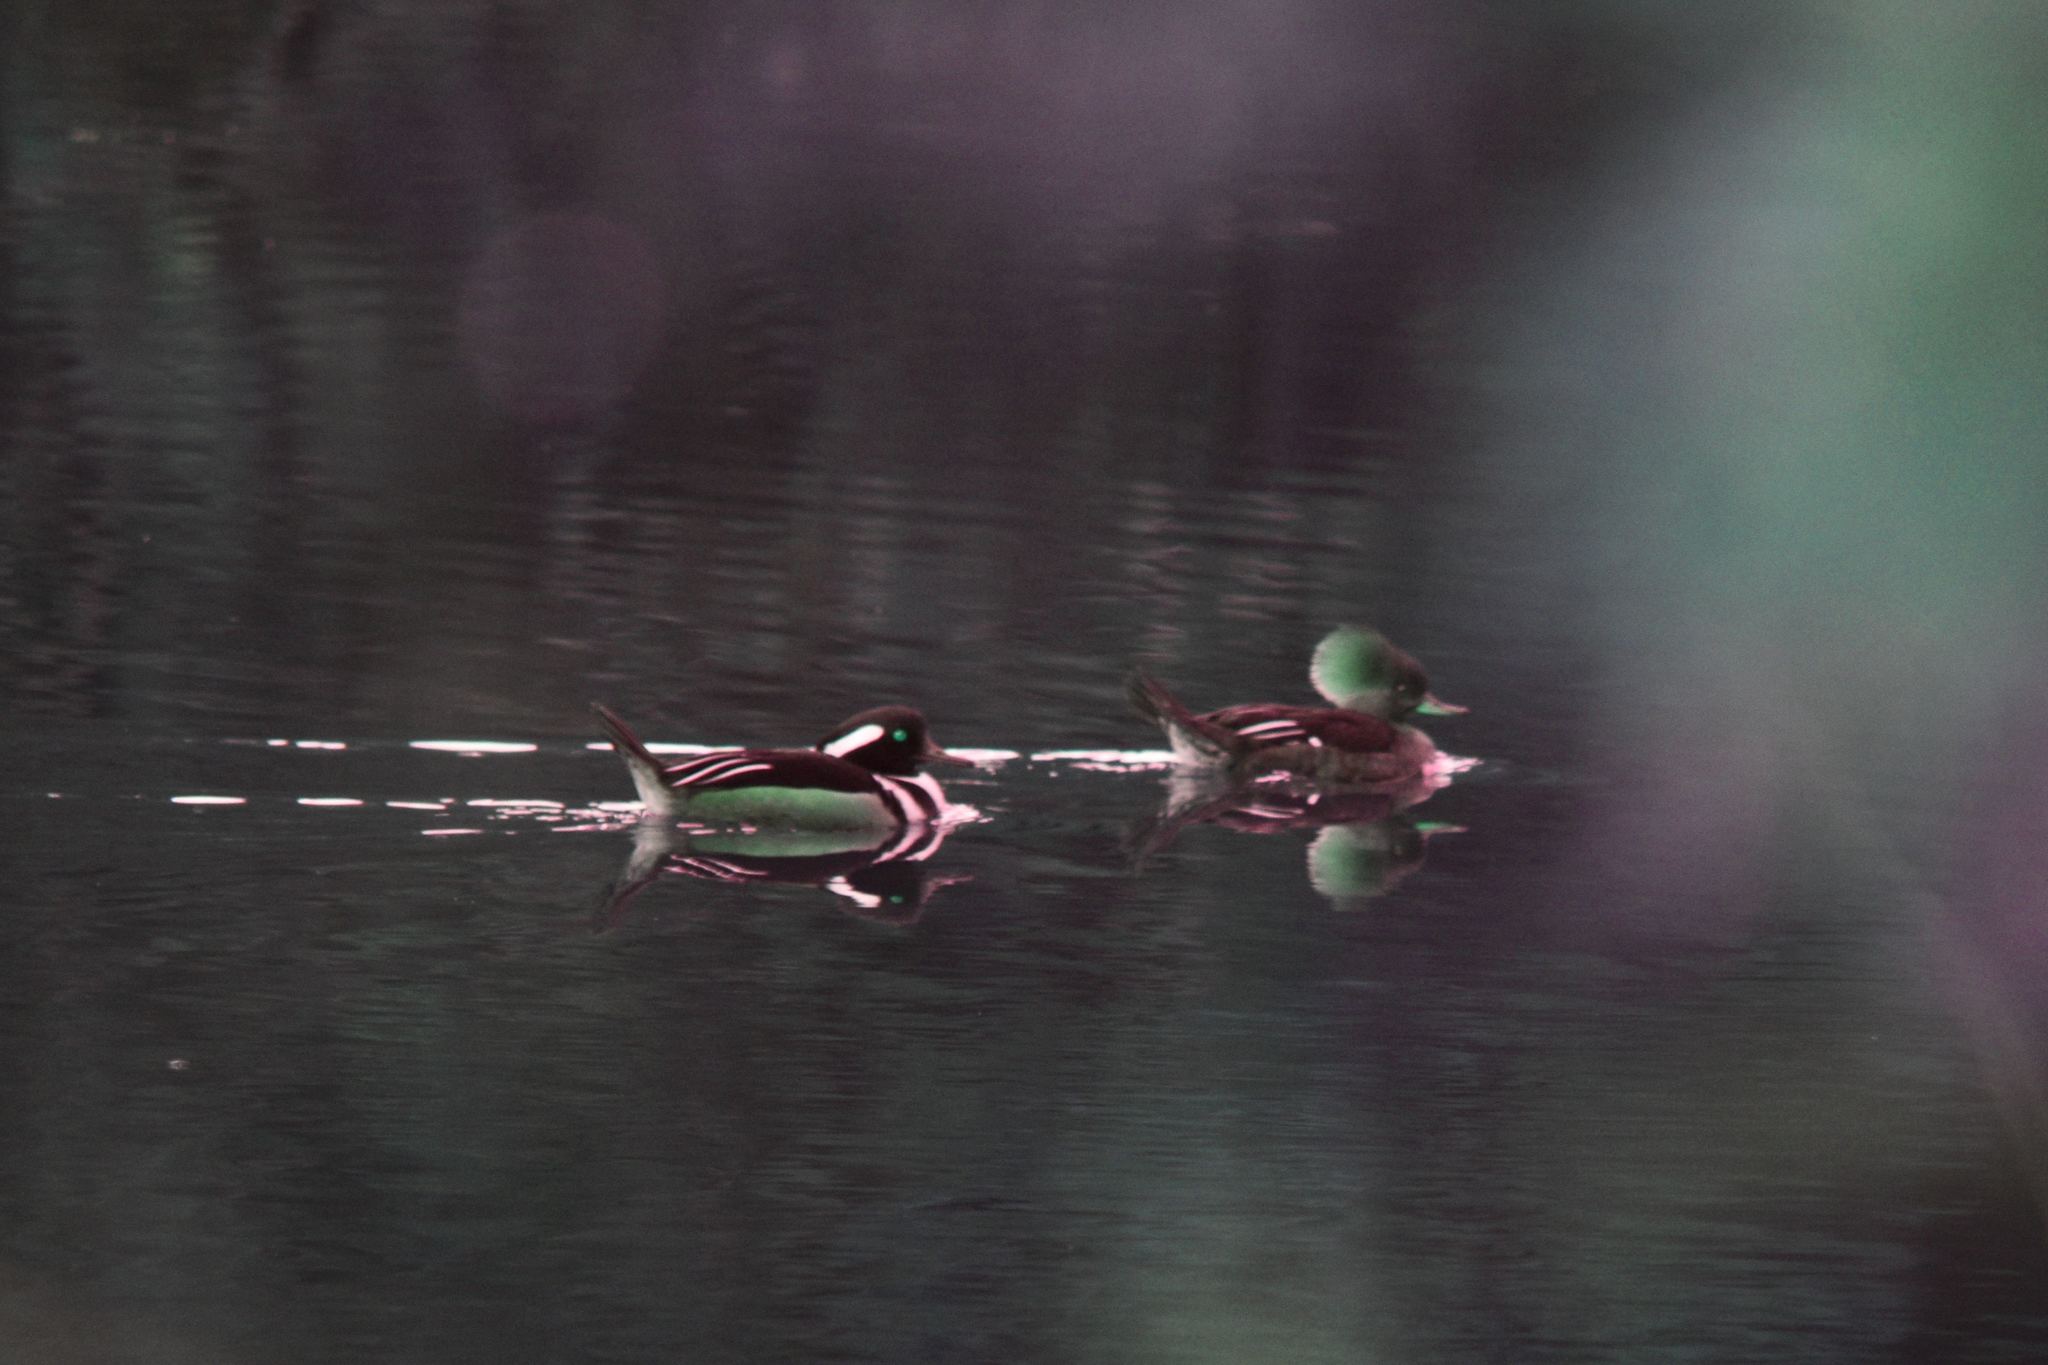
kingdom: Animalia
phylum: Chordata
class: Aves
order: Anseriformes
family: Anatidae
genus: Lophodytes
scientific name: Lophodytes cucullatus
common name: Hooded merganser
